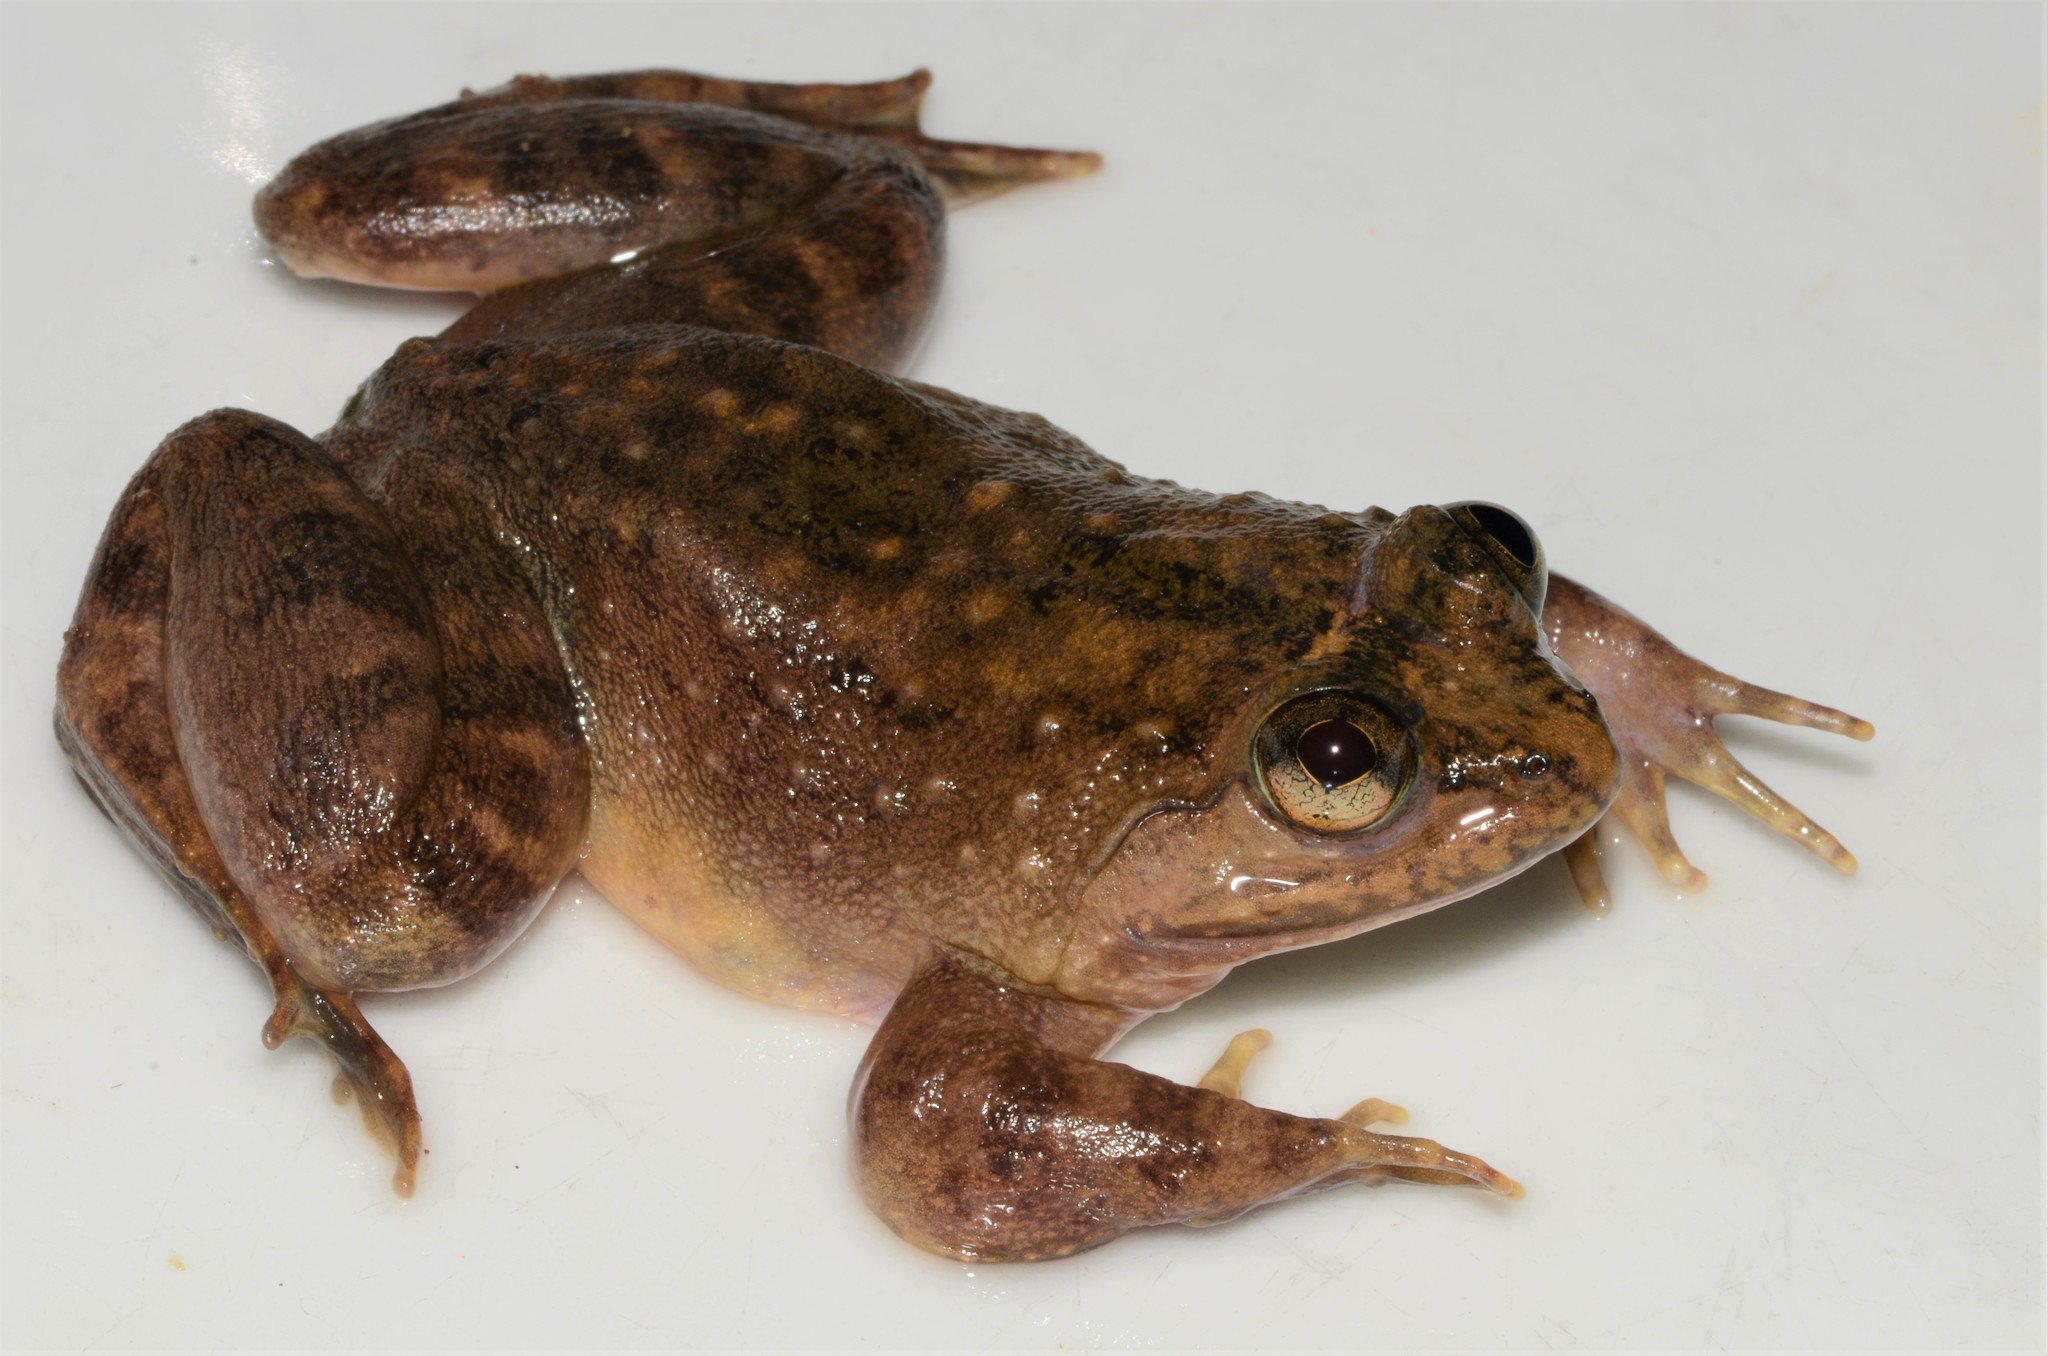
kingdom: Animalia
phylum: Chordata
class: Amphibia
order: Anura
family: Conrauidae
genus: Conraua
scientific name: Conraua crassipes
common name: Abo slippery frog
